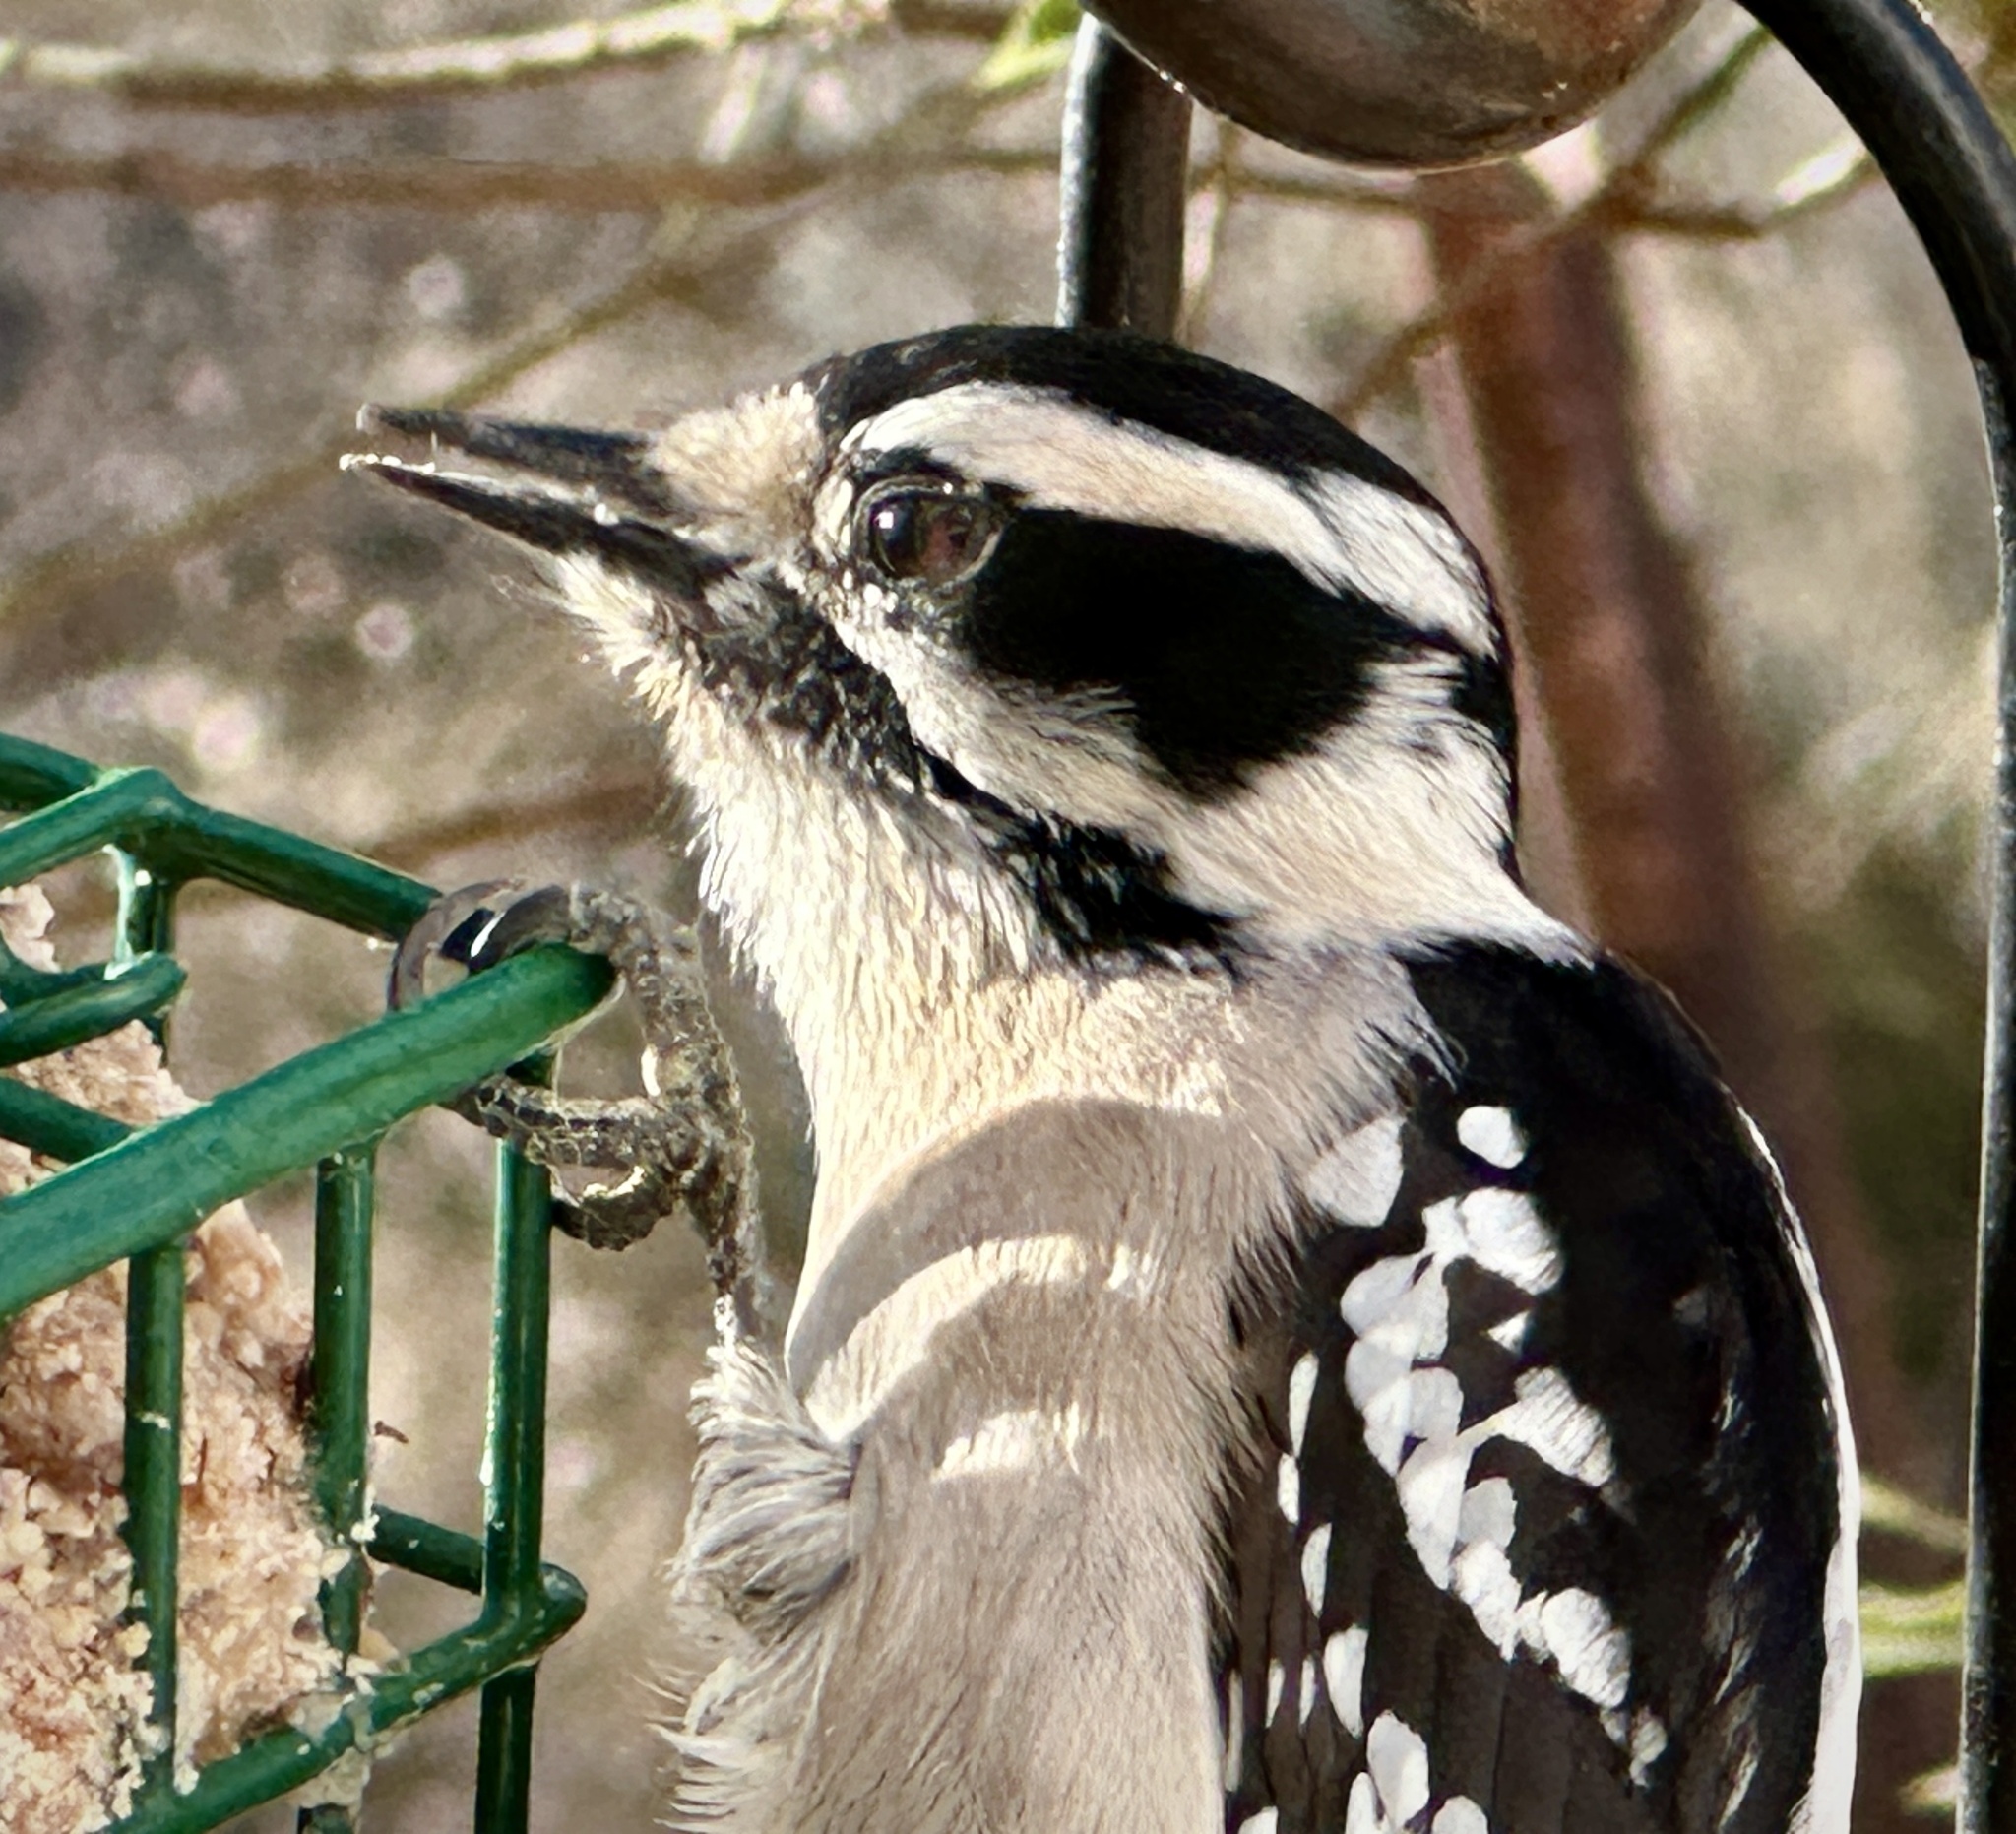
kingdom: Animalia
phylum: Chordata
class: Aves
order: Piciformes
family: Picidae
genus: Dryobates
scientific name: Dryobates pubescens
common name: Downy woodpecker
